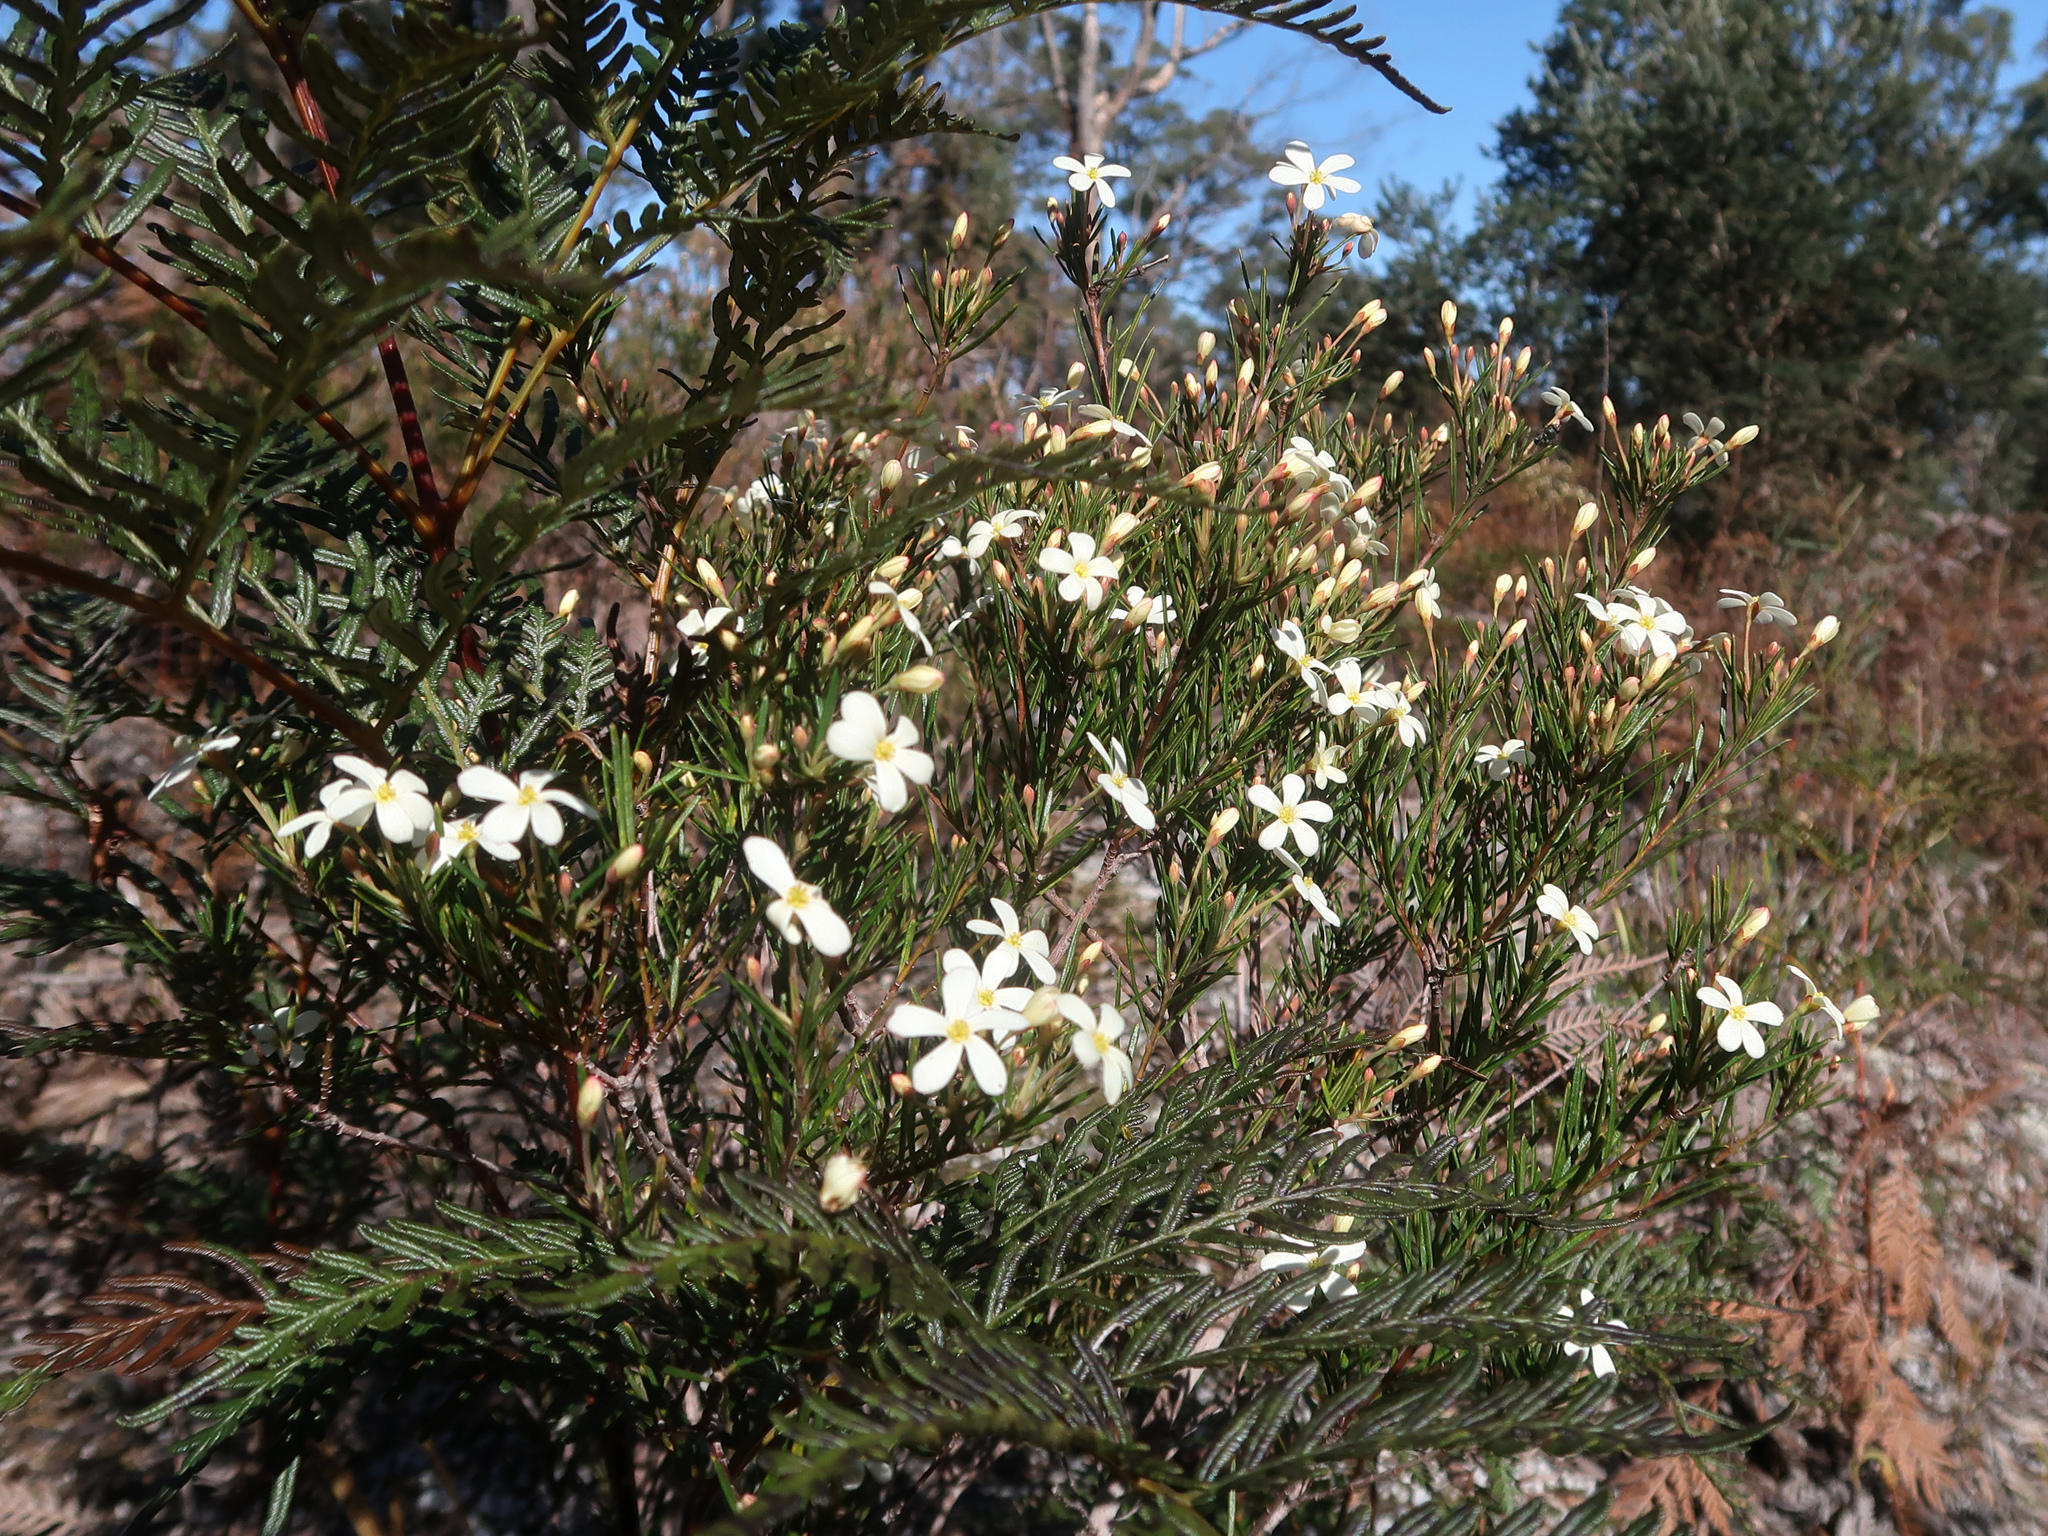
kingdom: Plantae
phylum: Tracheophyta
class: Magnoliopsida
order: Malpighiales
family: Euphorbiaceae
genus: Ricinocarpos
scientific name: Ricinocarpos pinifolius
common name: Weddingbush
